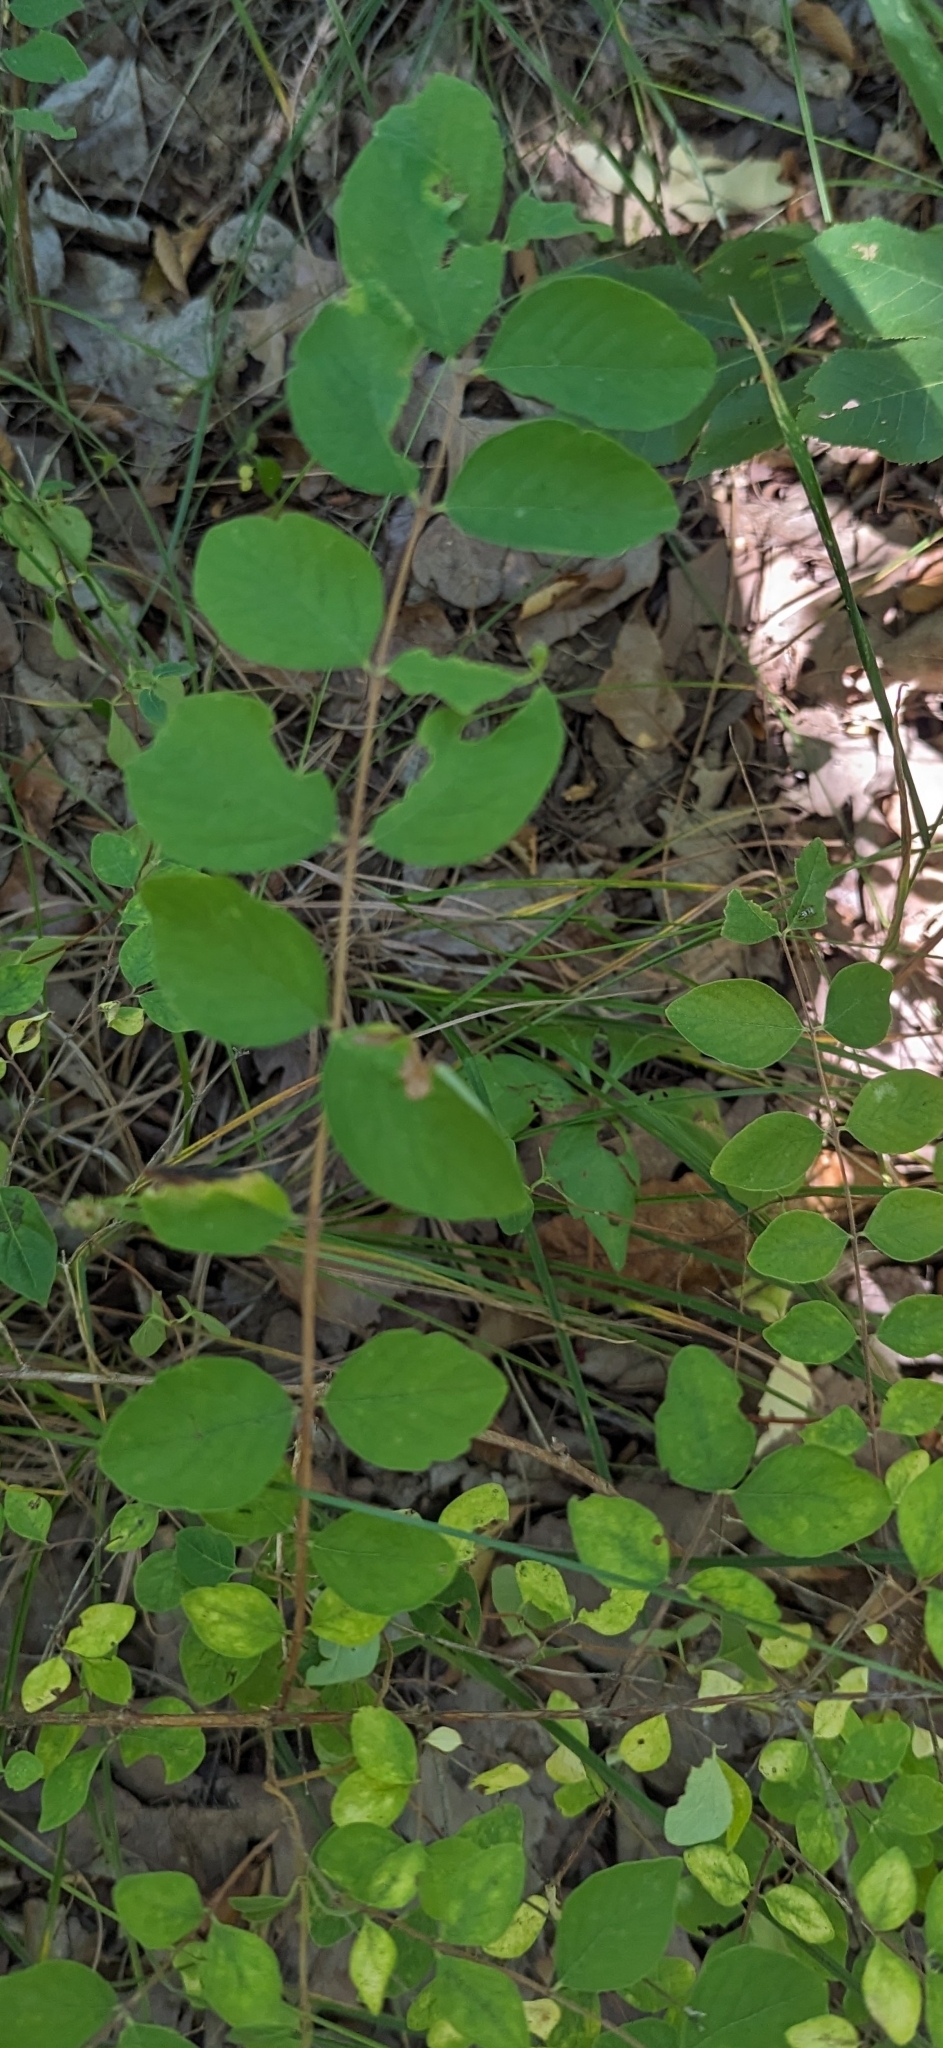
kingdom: Plantae
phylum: Tracheophyta
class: Magnoliopsida
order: Dipsacales
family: Caprifoliaceae
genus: Symphoricarpos
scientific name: Symphoricarpos orbiculatus
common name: Coralberry
